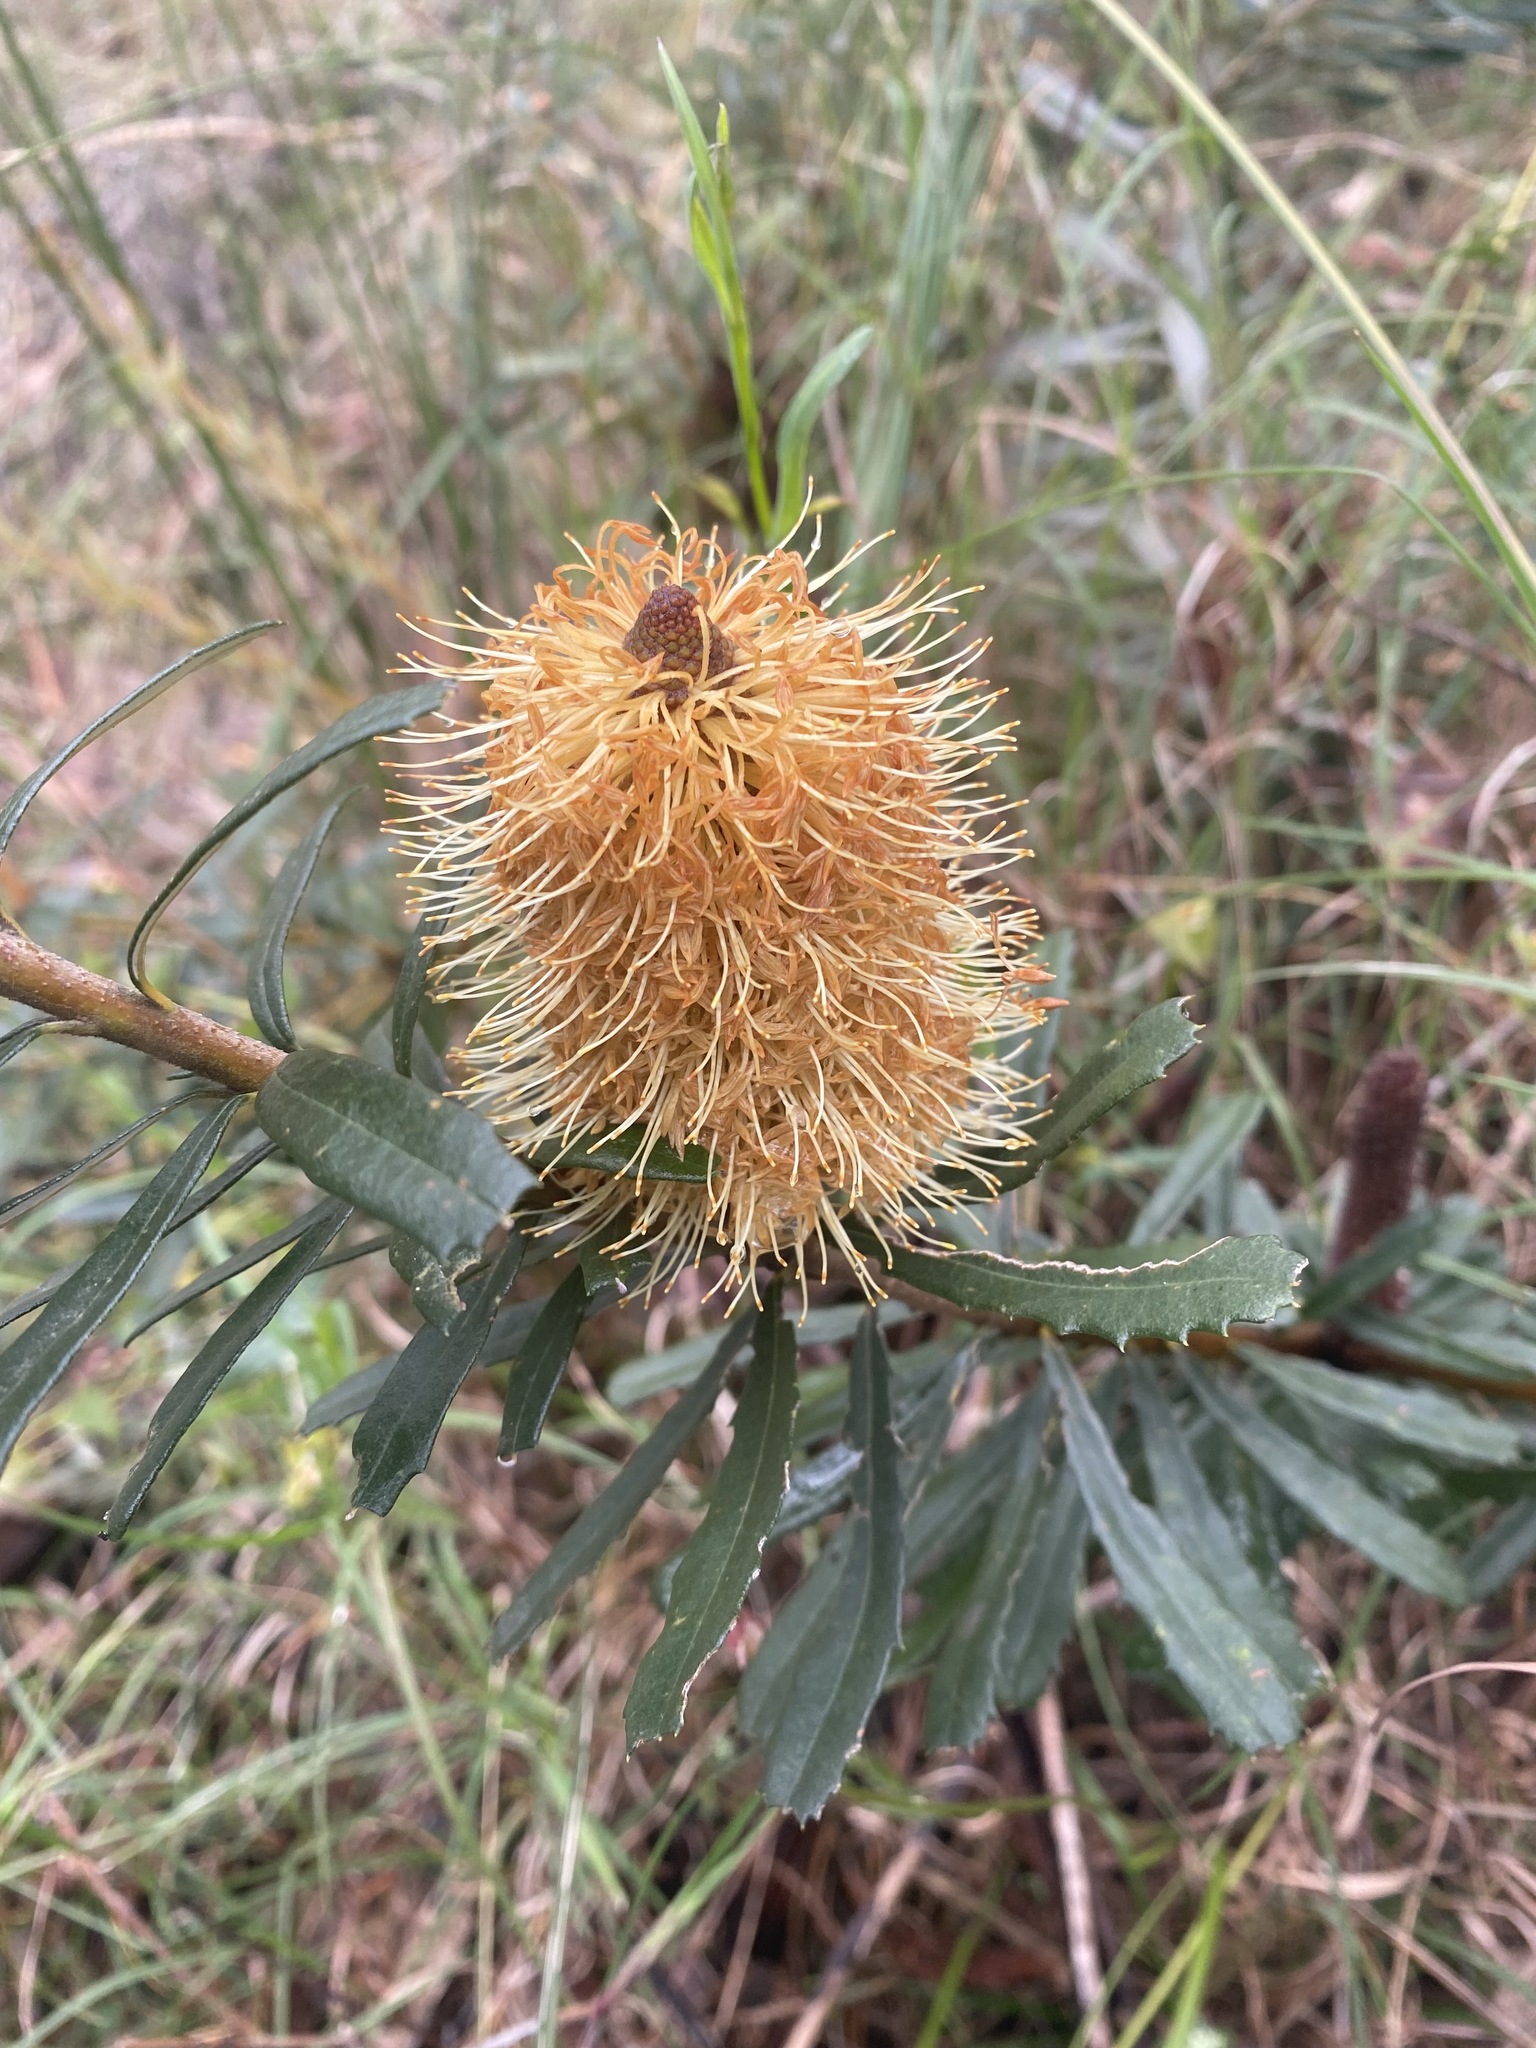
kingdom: Plantae
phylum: Tracheophyta
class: Magnoliopsida
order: Proteales
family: Proteaceae
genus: Banksia
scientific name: Banksia marginata
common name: Silver banksia
